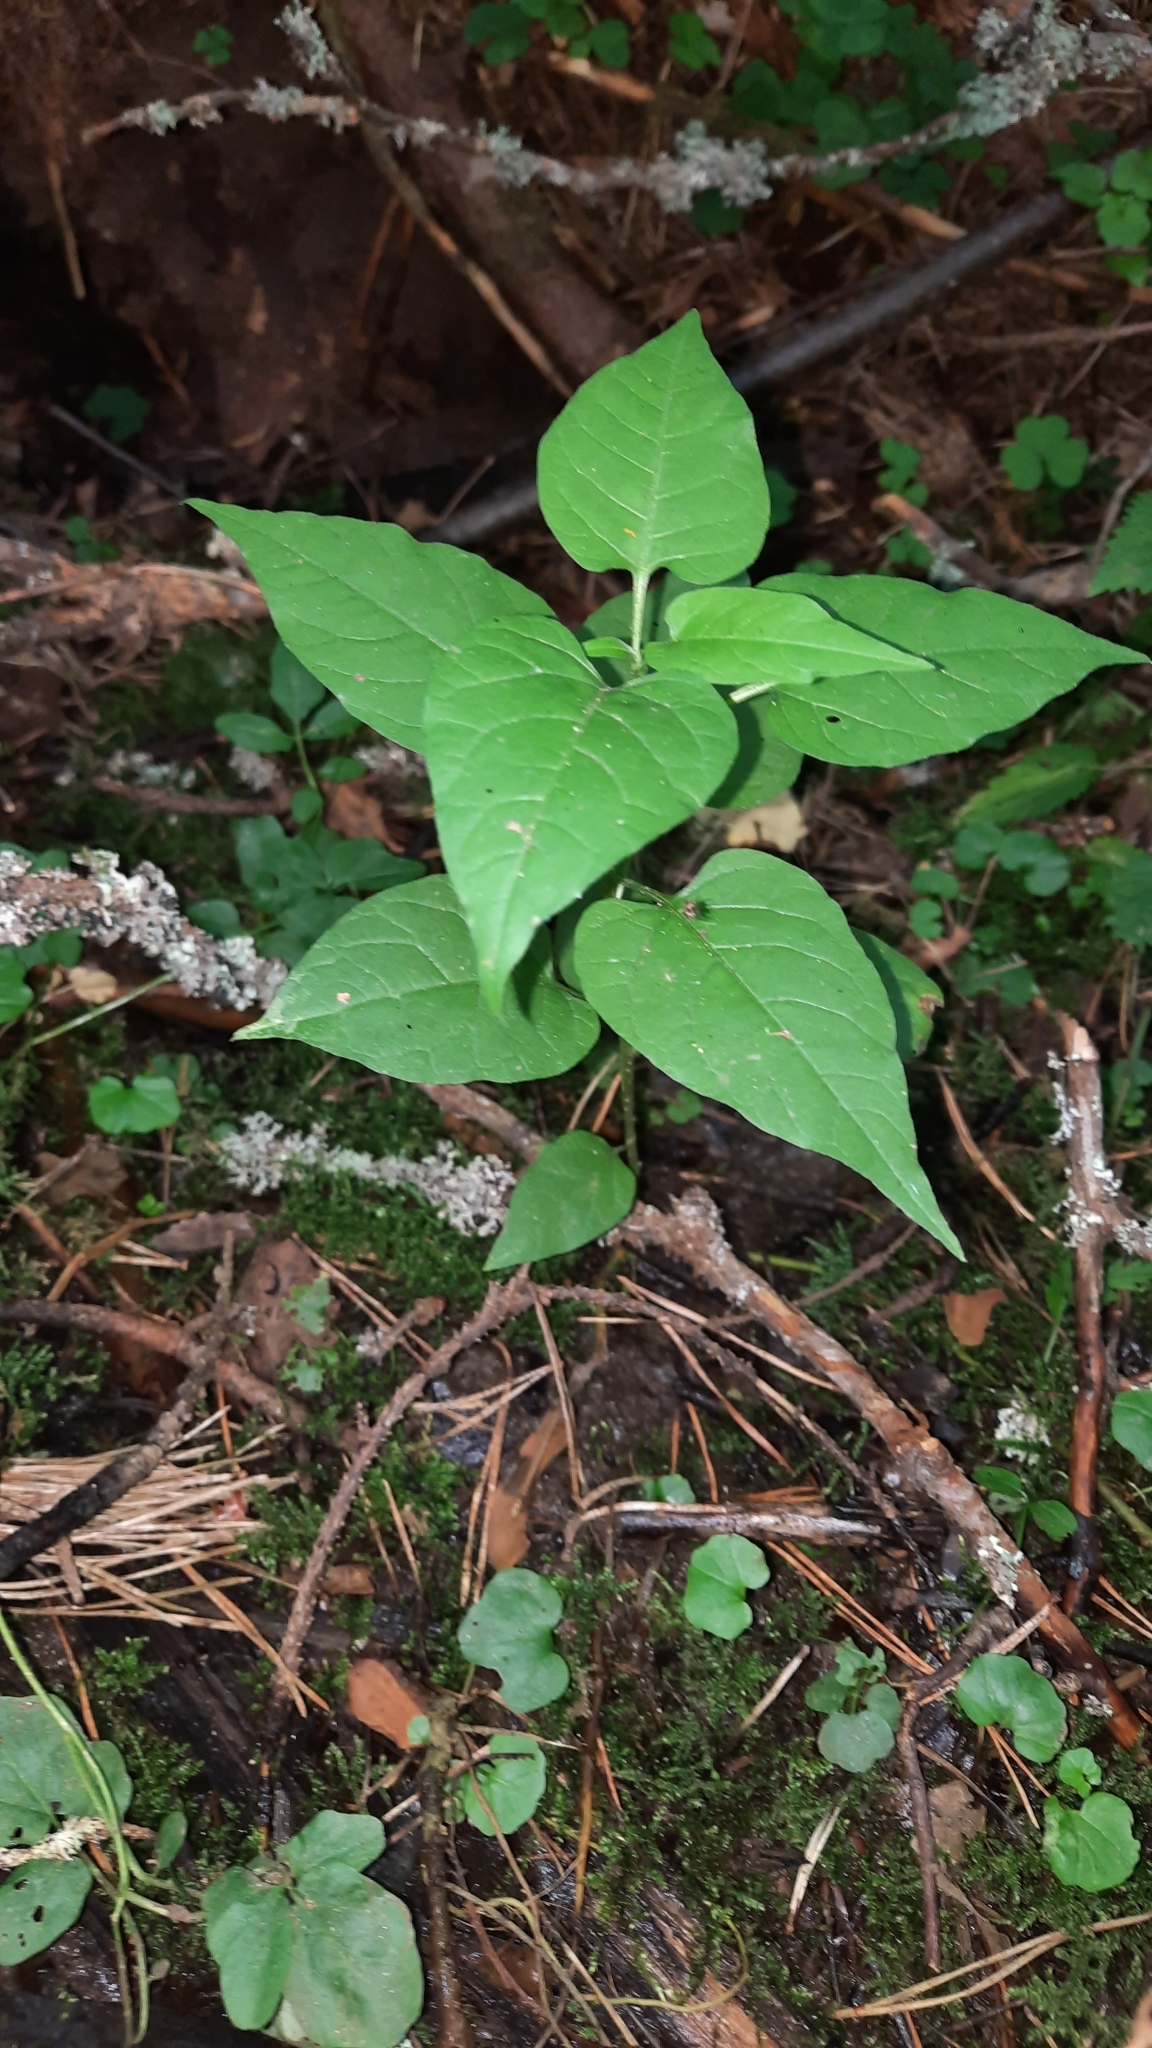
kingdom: Plantae
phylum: Tracheophyta
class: Magnoliopsida
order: Solanales
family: Solanaceae
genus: Solanum
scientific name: Solanum dulcamara
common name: Climbing nightshade
